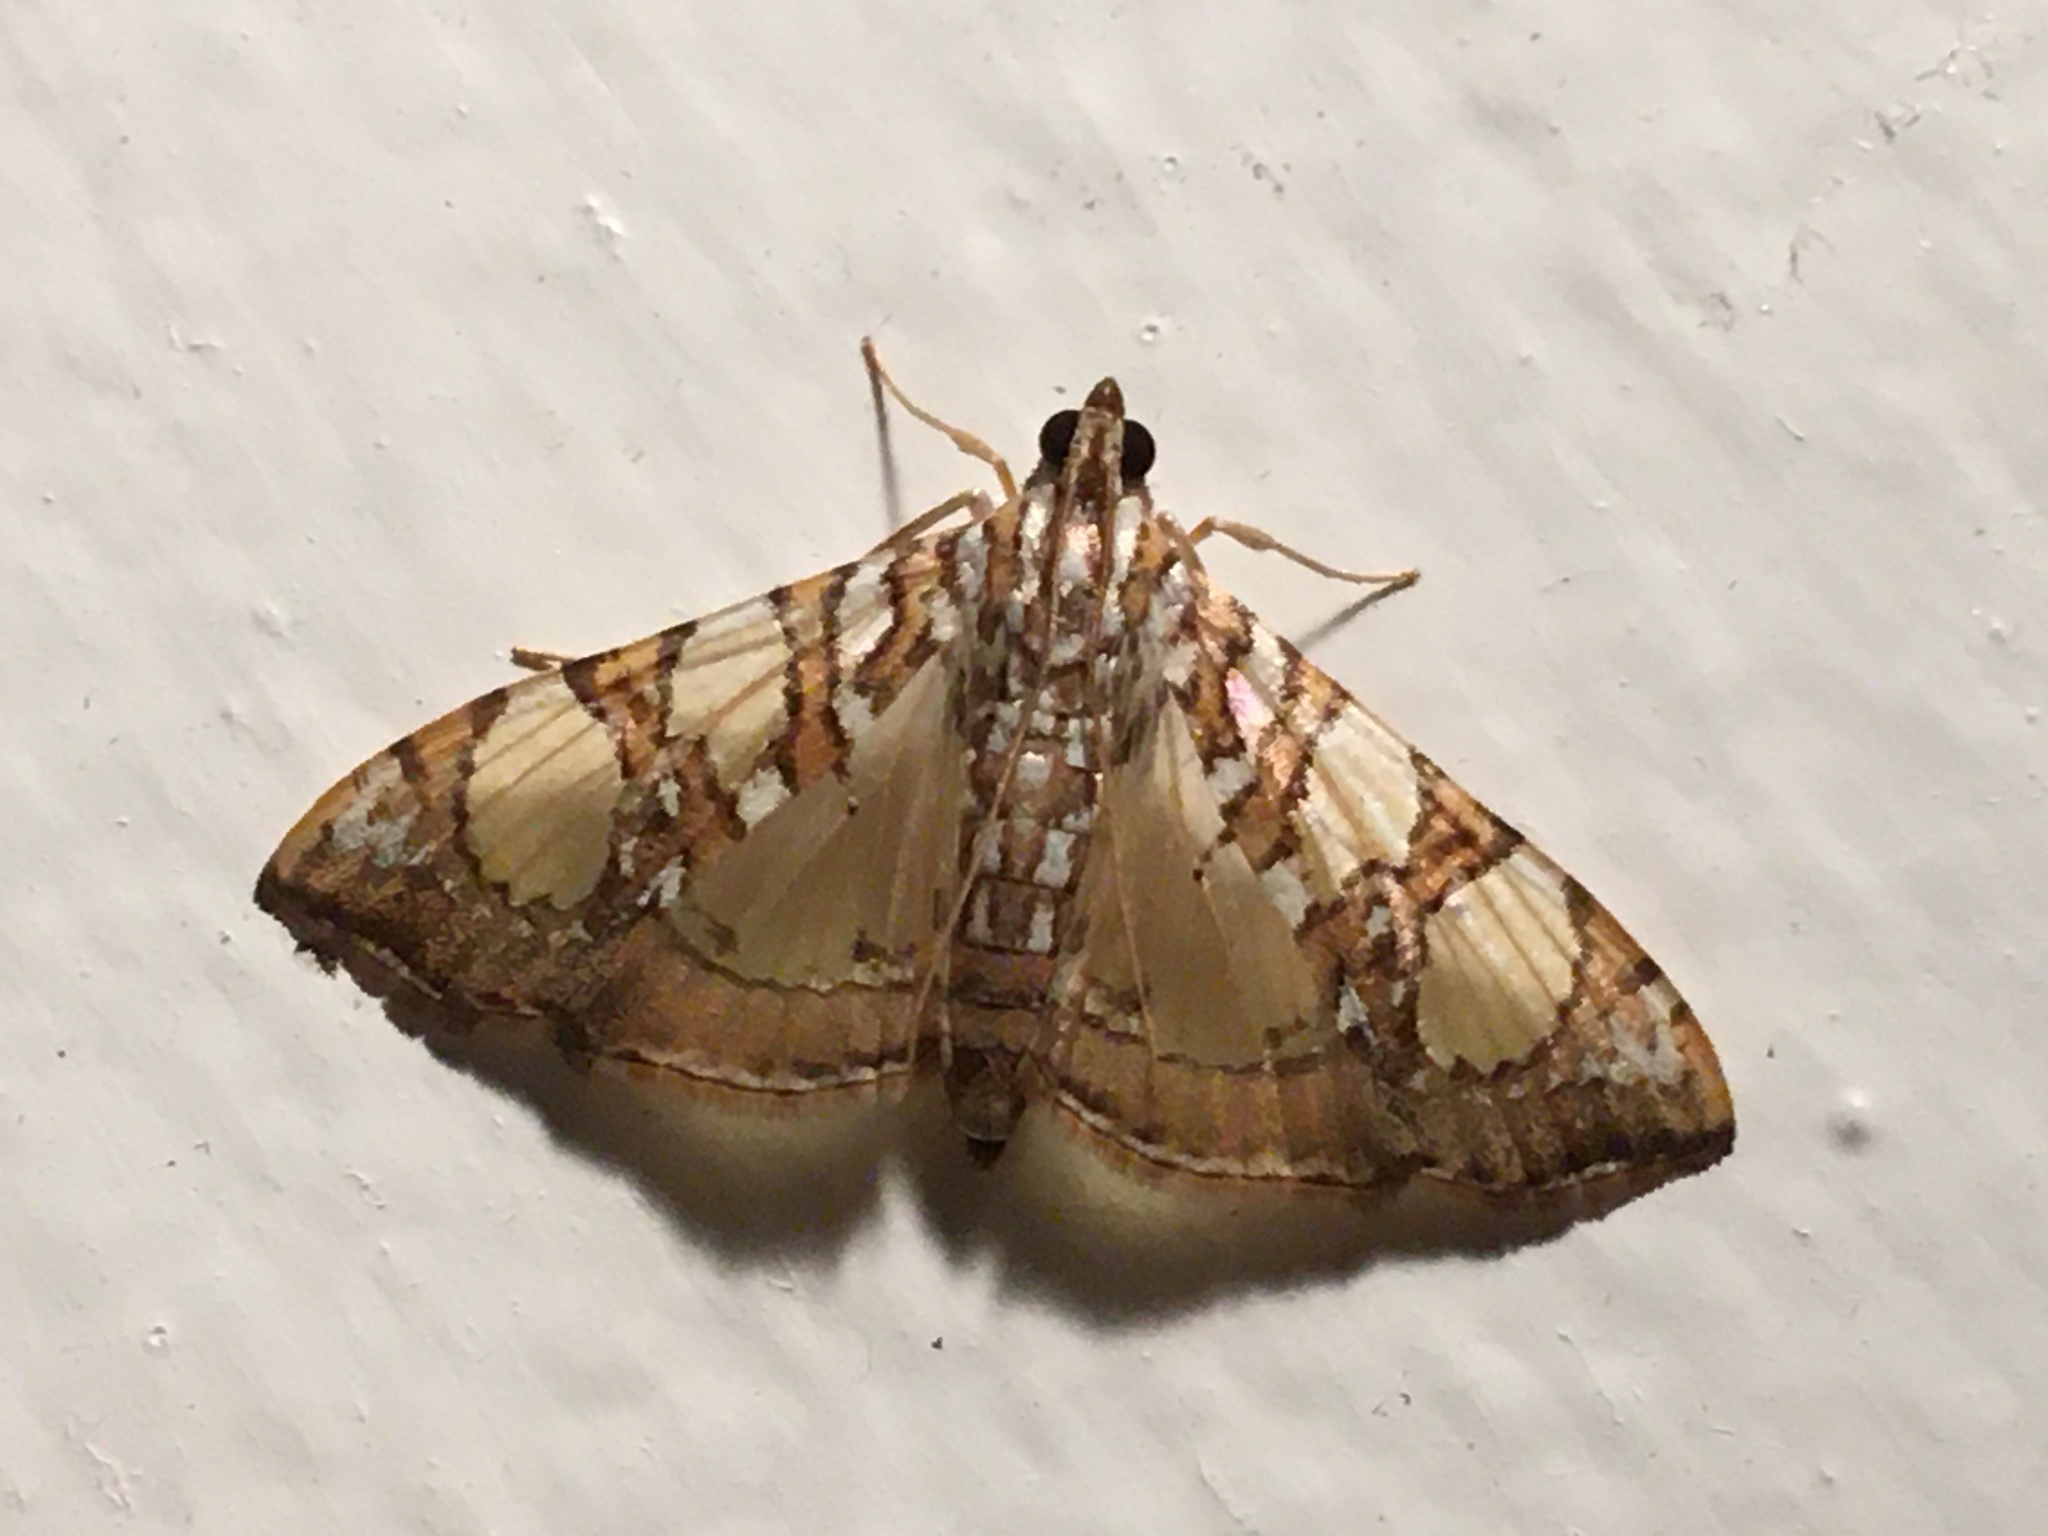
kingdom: Animalia
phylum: Arthropoda
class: Insecta
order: Lepidoptera
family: Crambidae
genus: Glyphodes
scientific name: Glyphodes sibillalis
